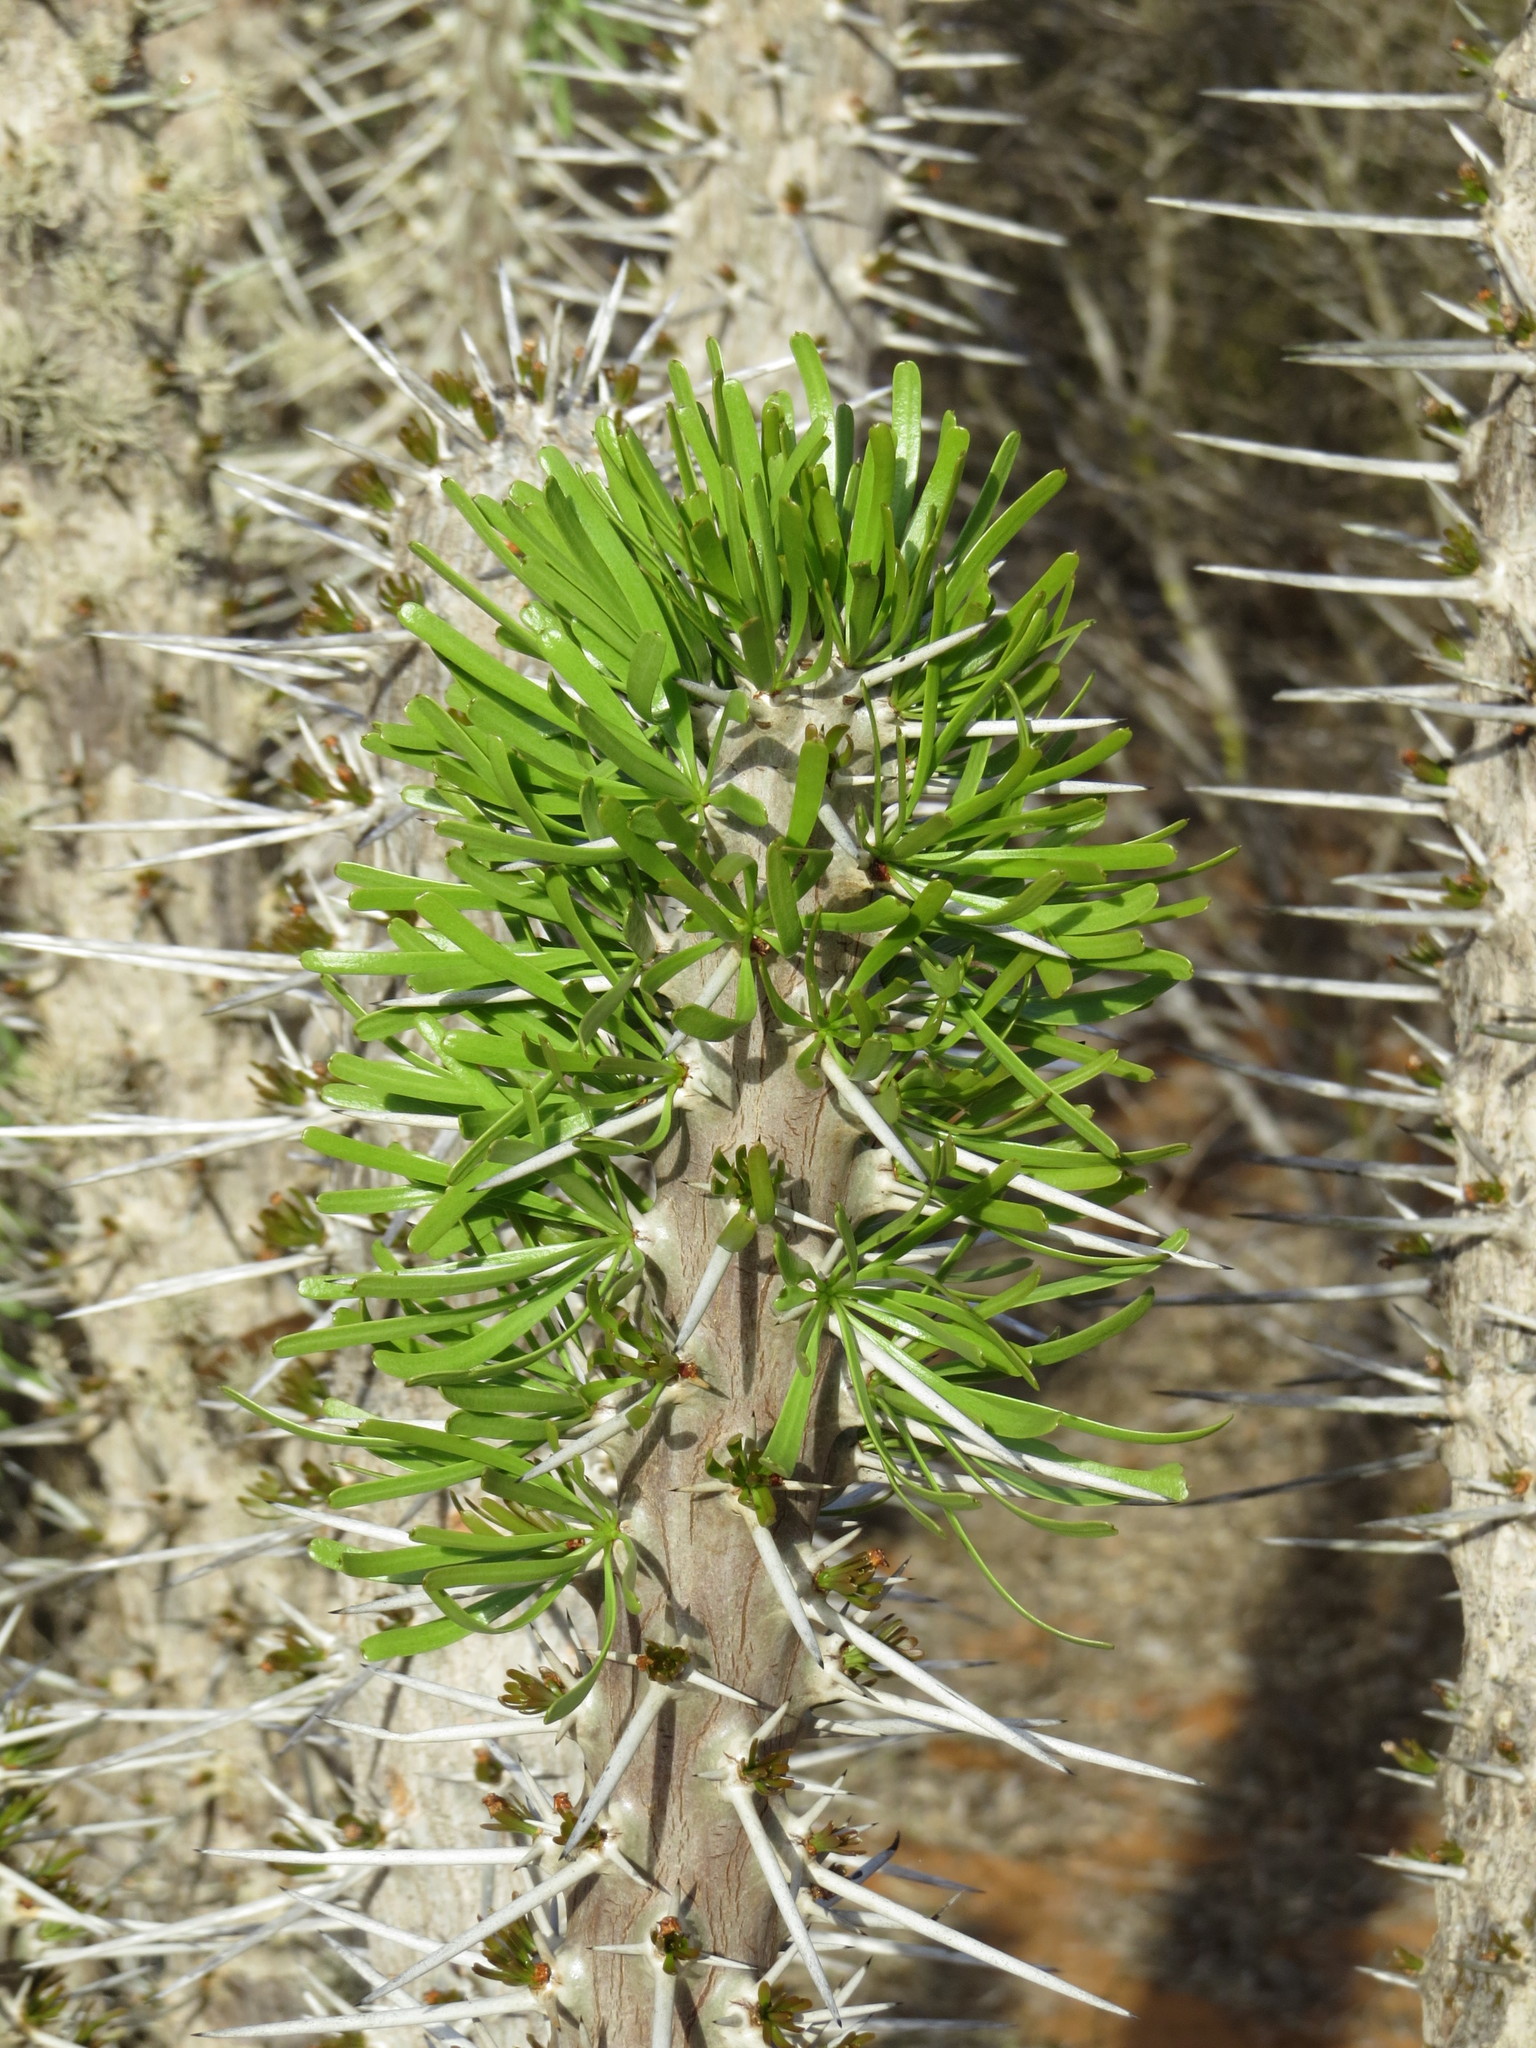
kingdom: Plantae
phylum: Tracheophyta
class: Magnoliopsida
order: Caryophyllales
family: Didiereaceae
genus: Didierea
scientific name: Didierea madagascariensis
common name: Octopus-tree
